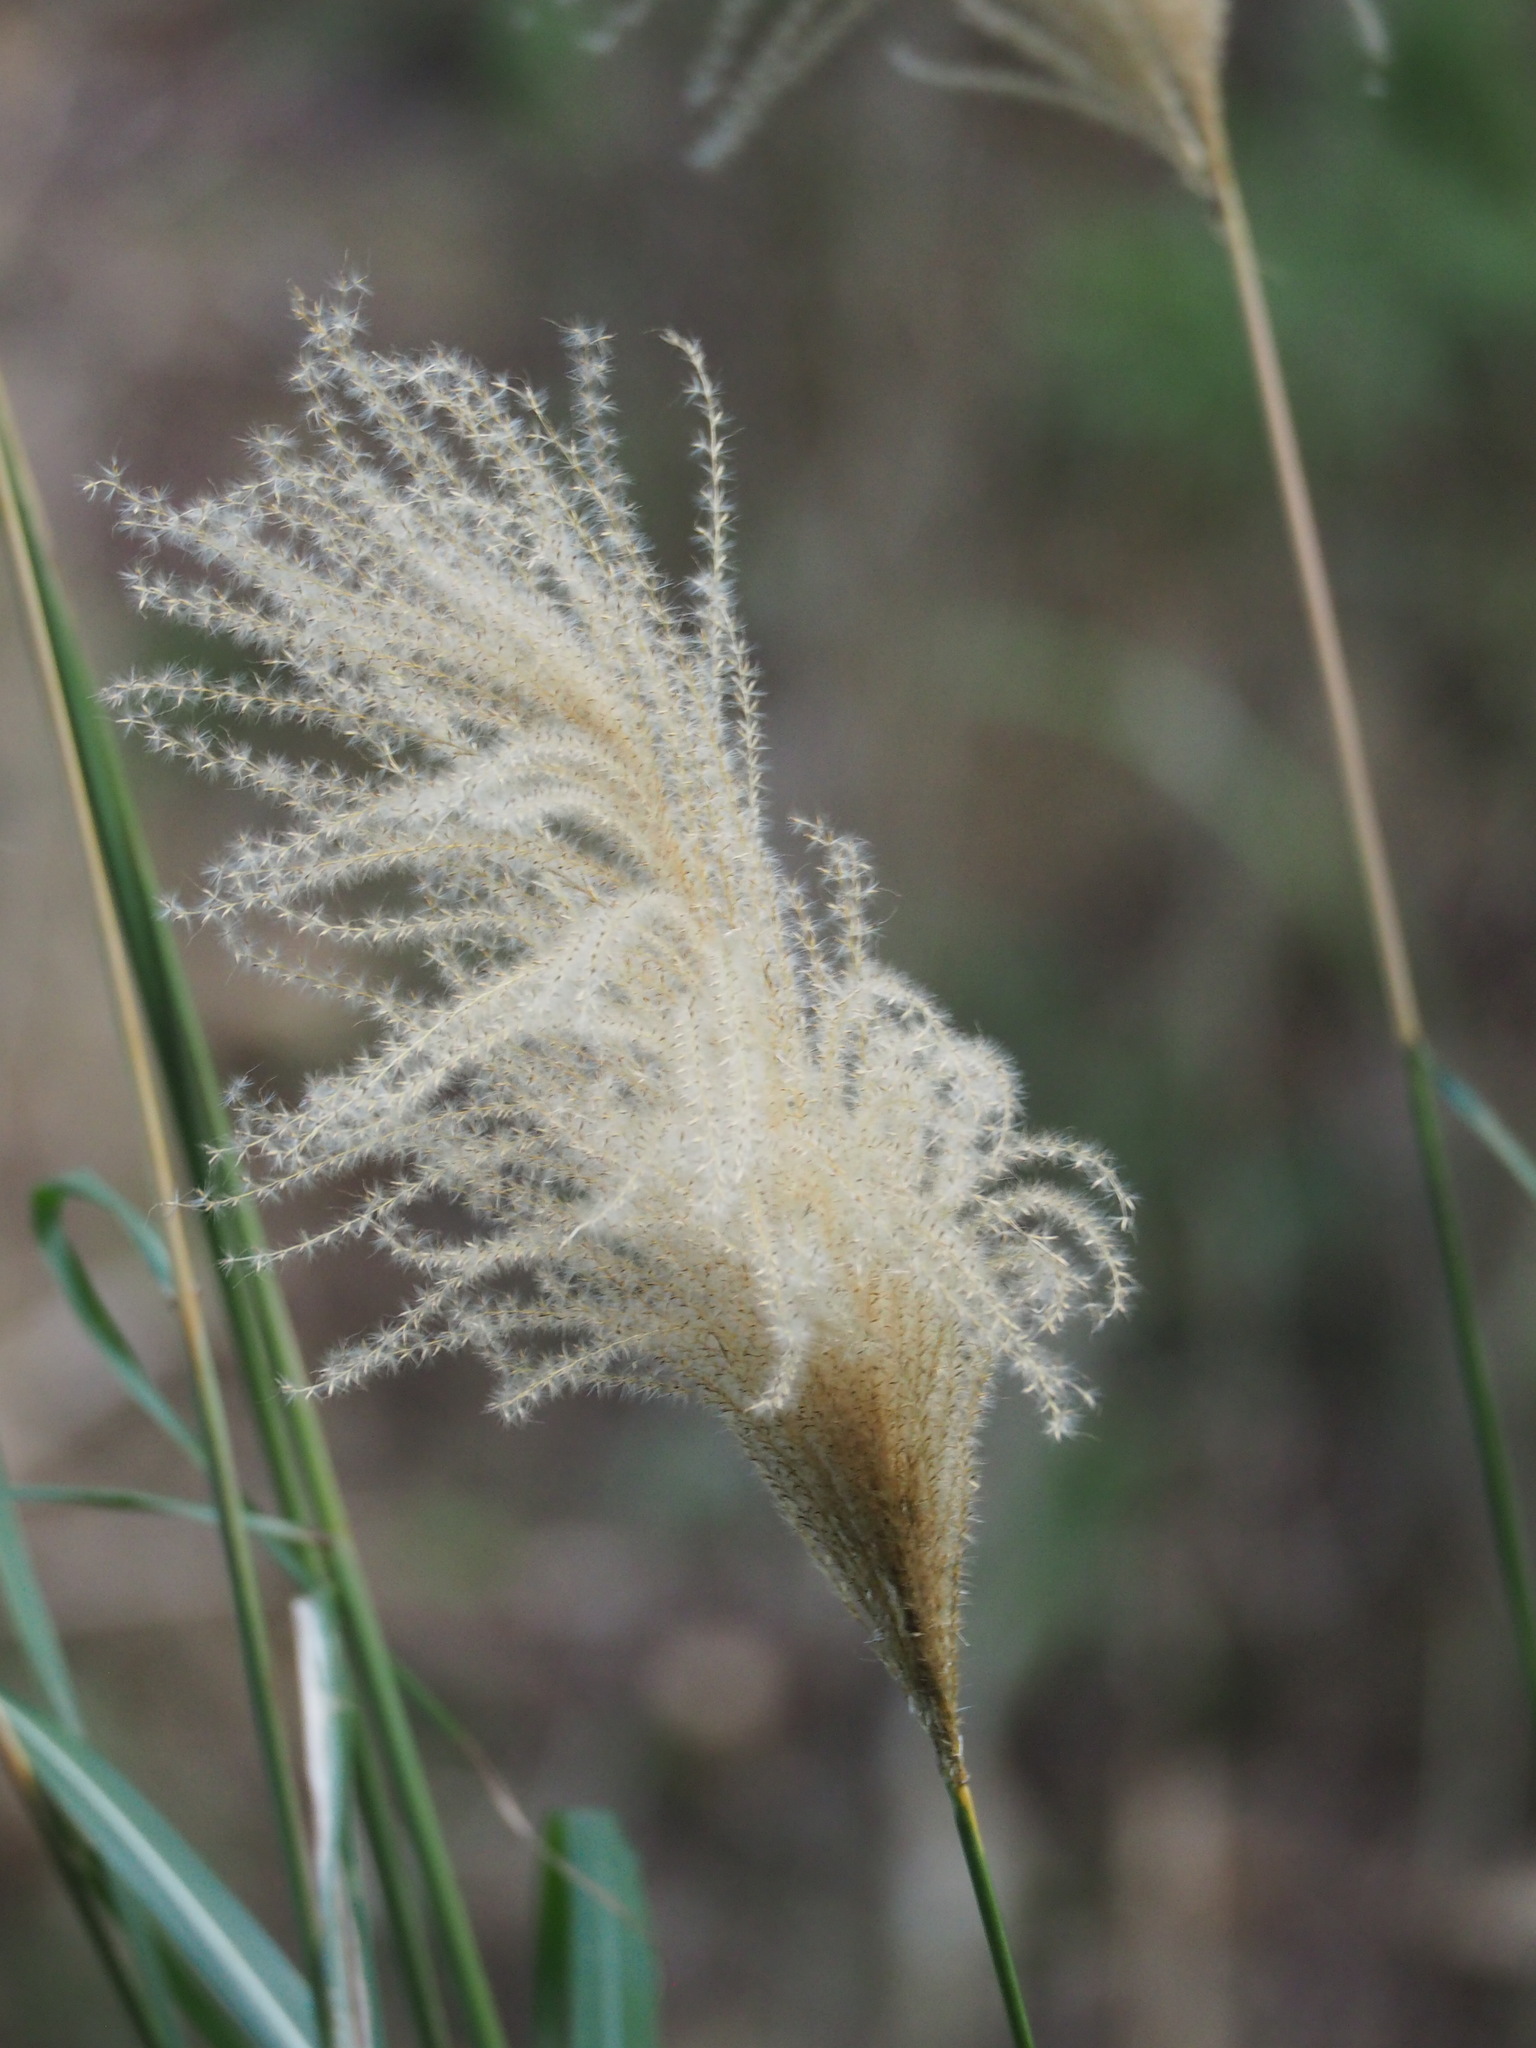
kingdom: Plantae
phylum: Tracheophyta
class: Liliopsida
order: Poales
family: Poaceae
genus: Miscanthus
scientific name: Miscanthus sinensis
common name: Chinese silvergrass
